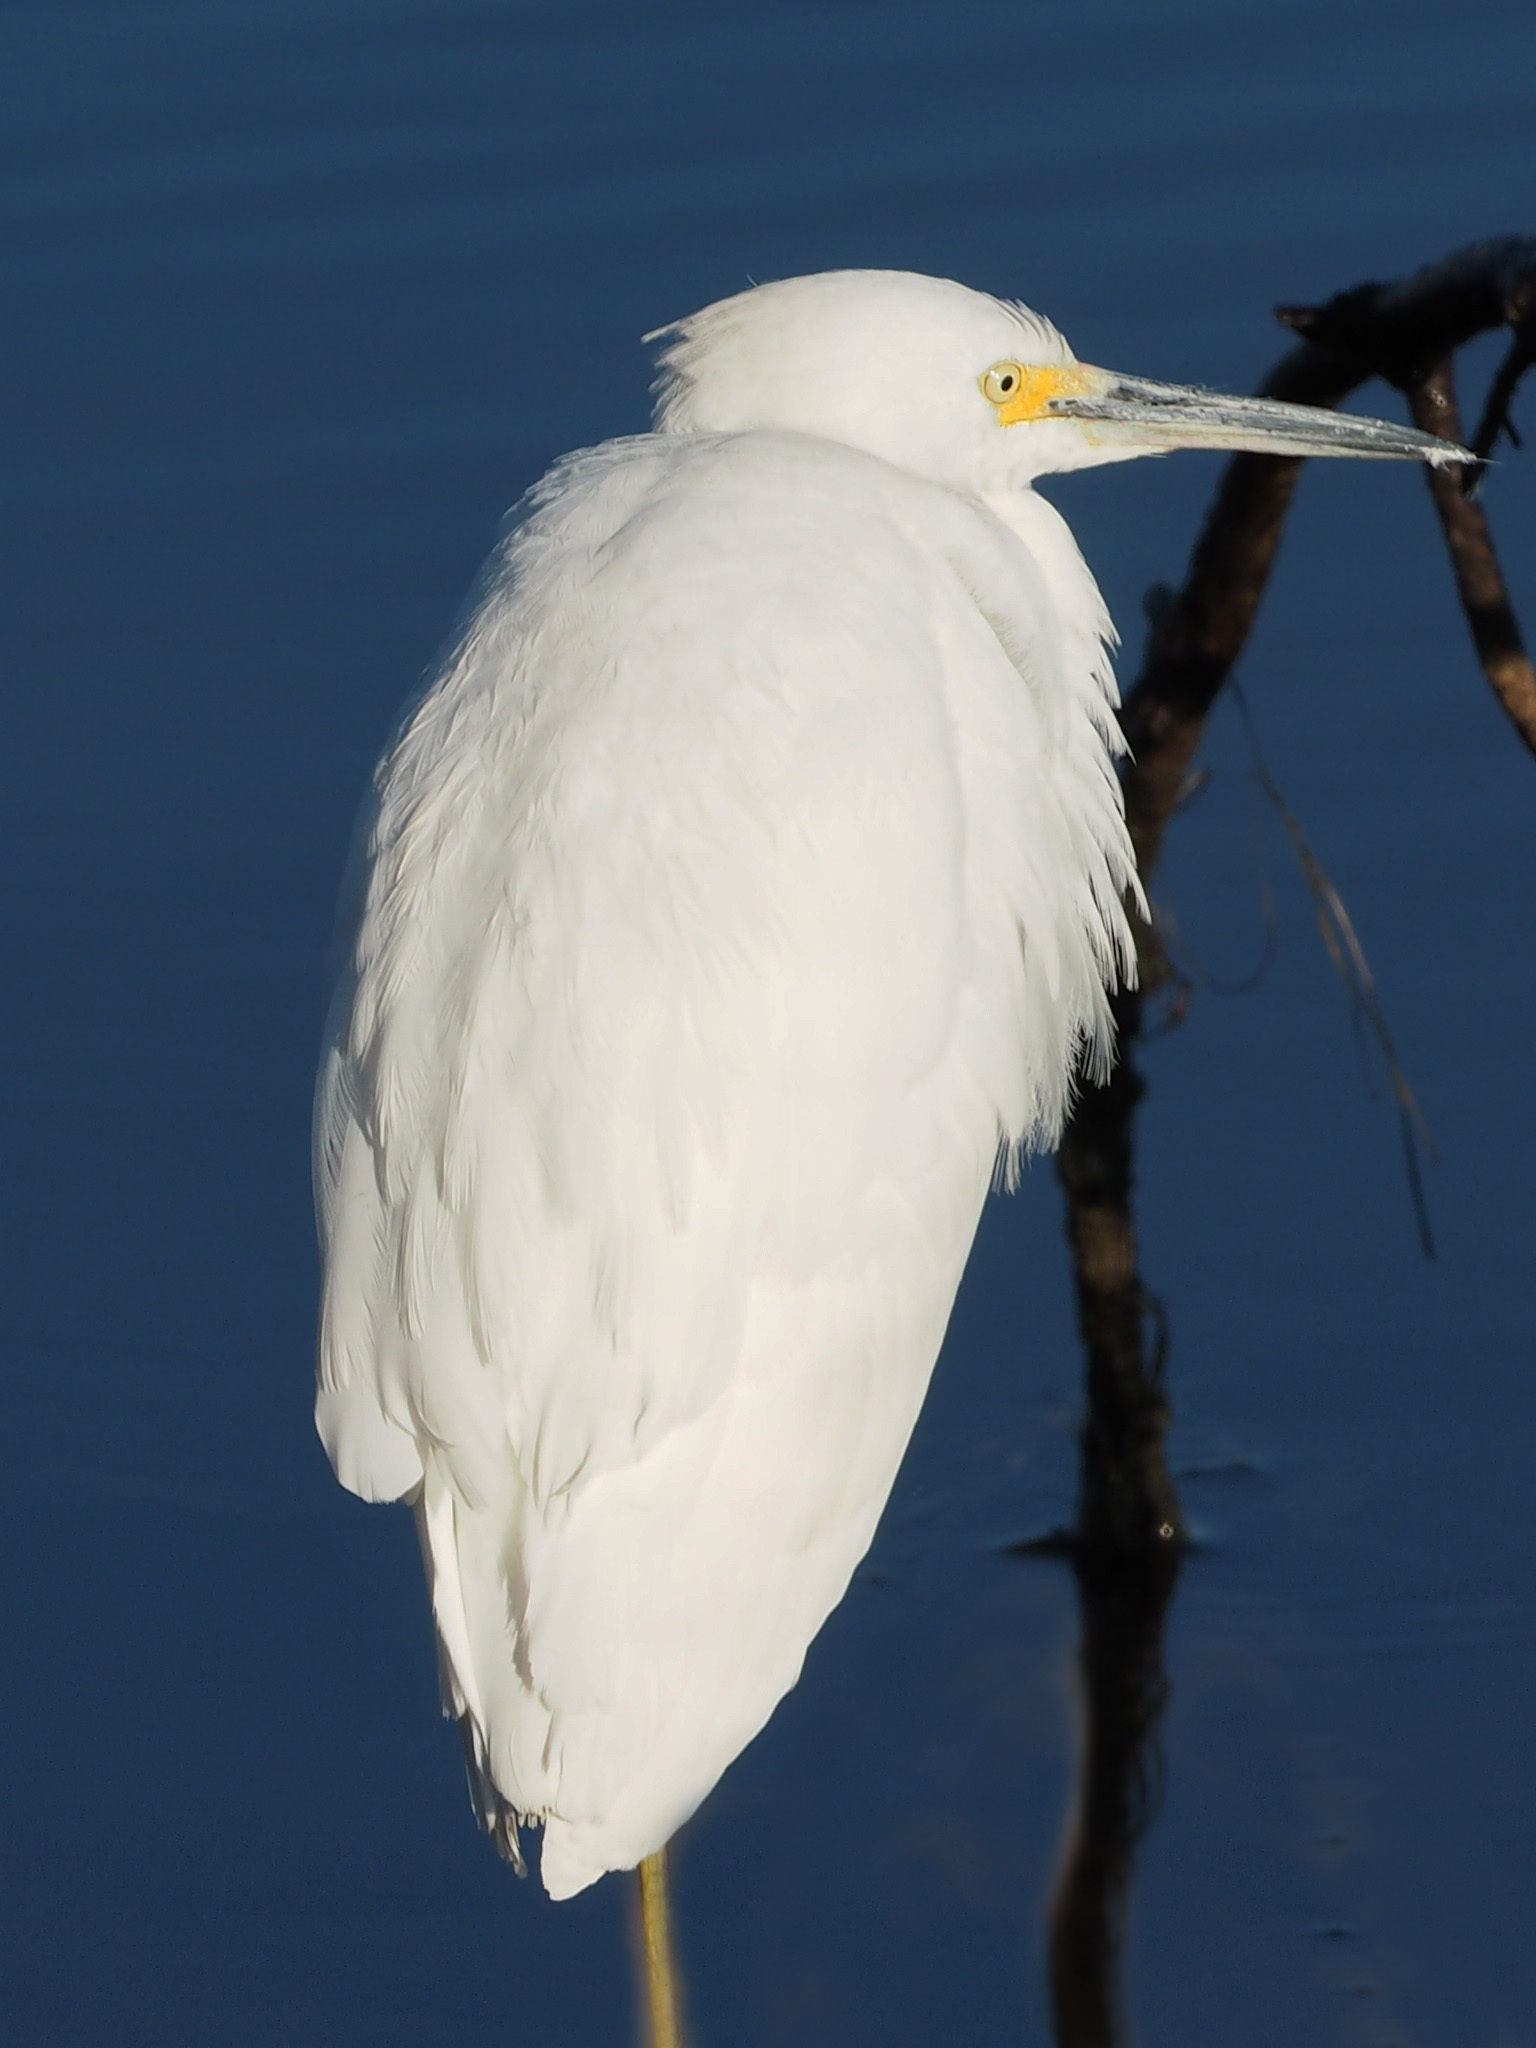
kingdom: Animalia
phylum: Chordata
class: Aves
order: Pelecaniformes
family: Ardeidae
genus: Egretta
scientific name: Egretta thula
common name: Snowy egret
